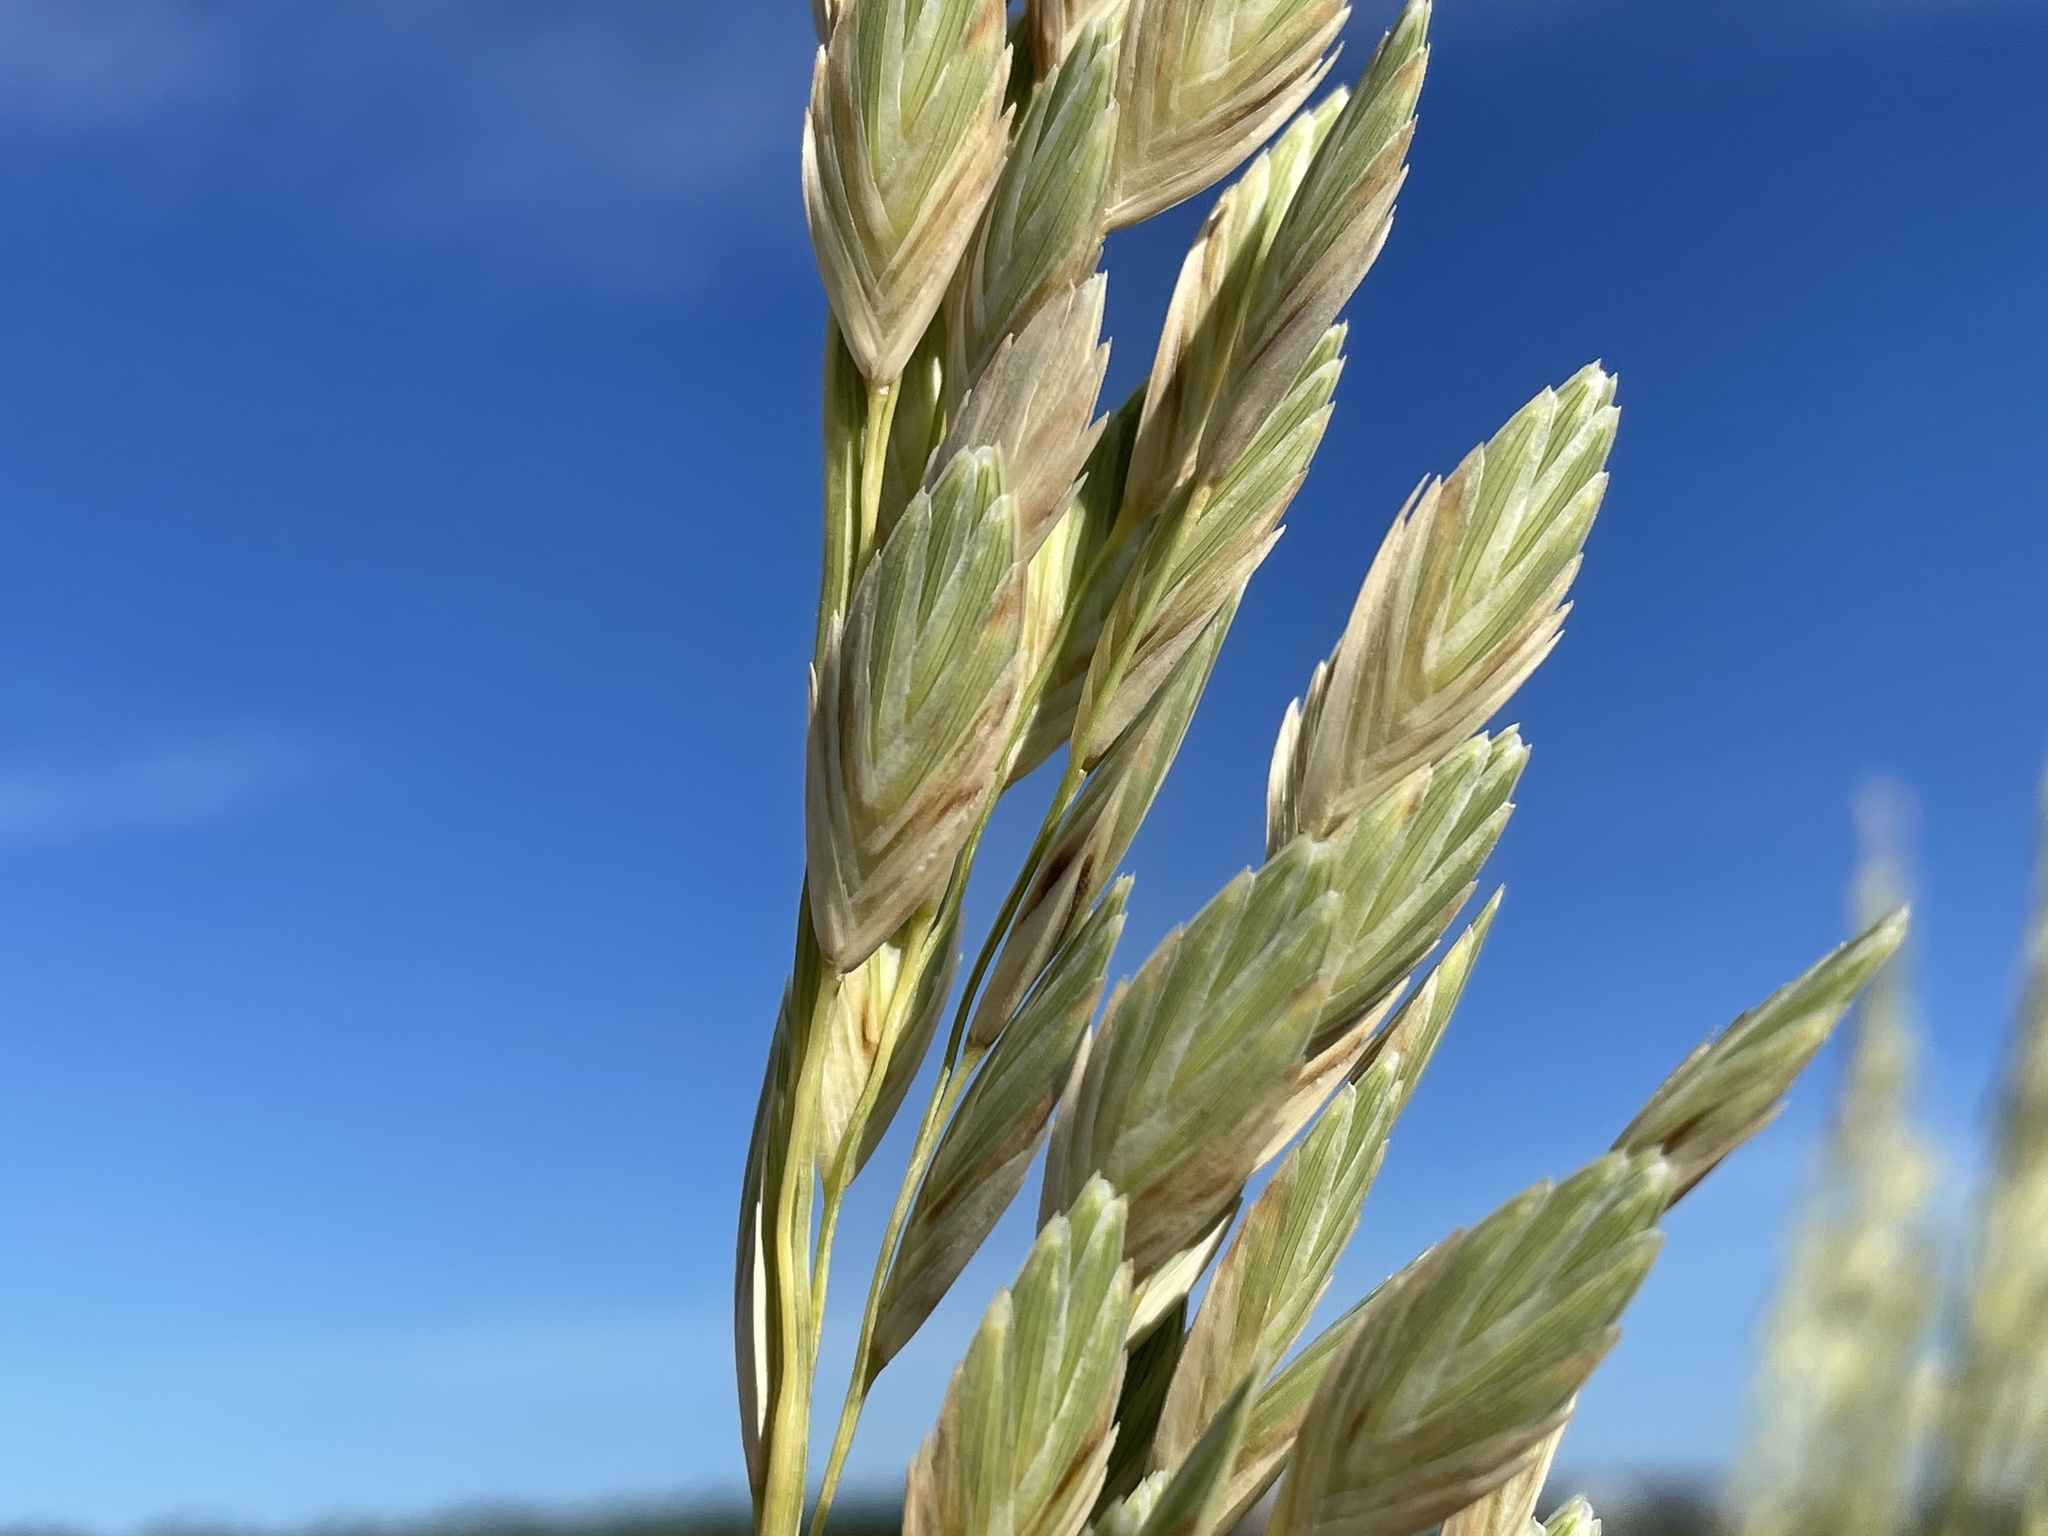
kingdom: Plantae
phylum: Tracheophyta
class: Liliopsida
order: Poales
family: Poaceae
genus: Uniola
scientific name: Uniola paniculata
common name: Seaside-oats
